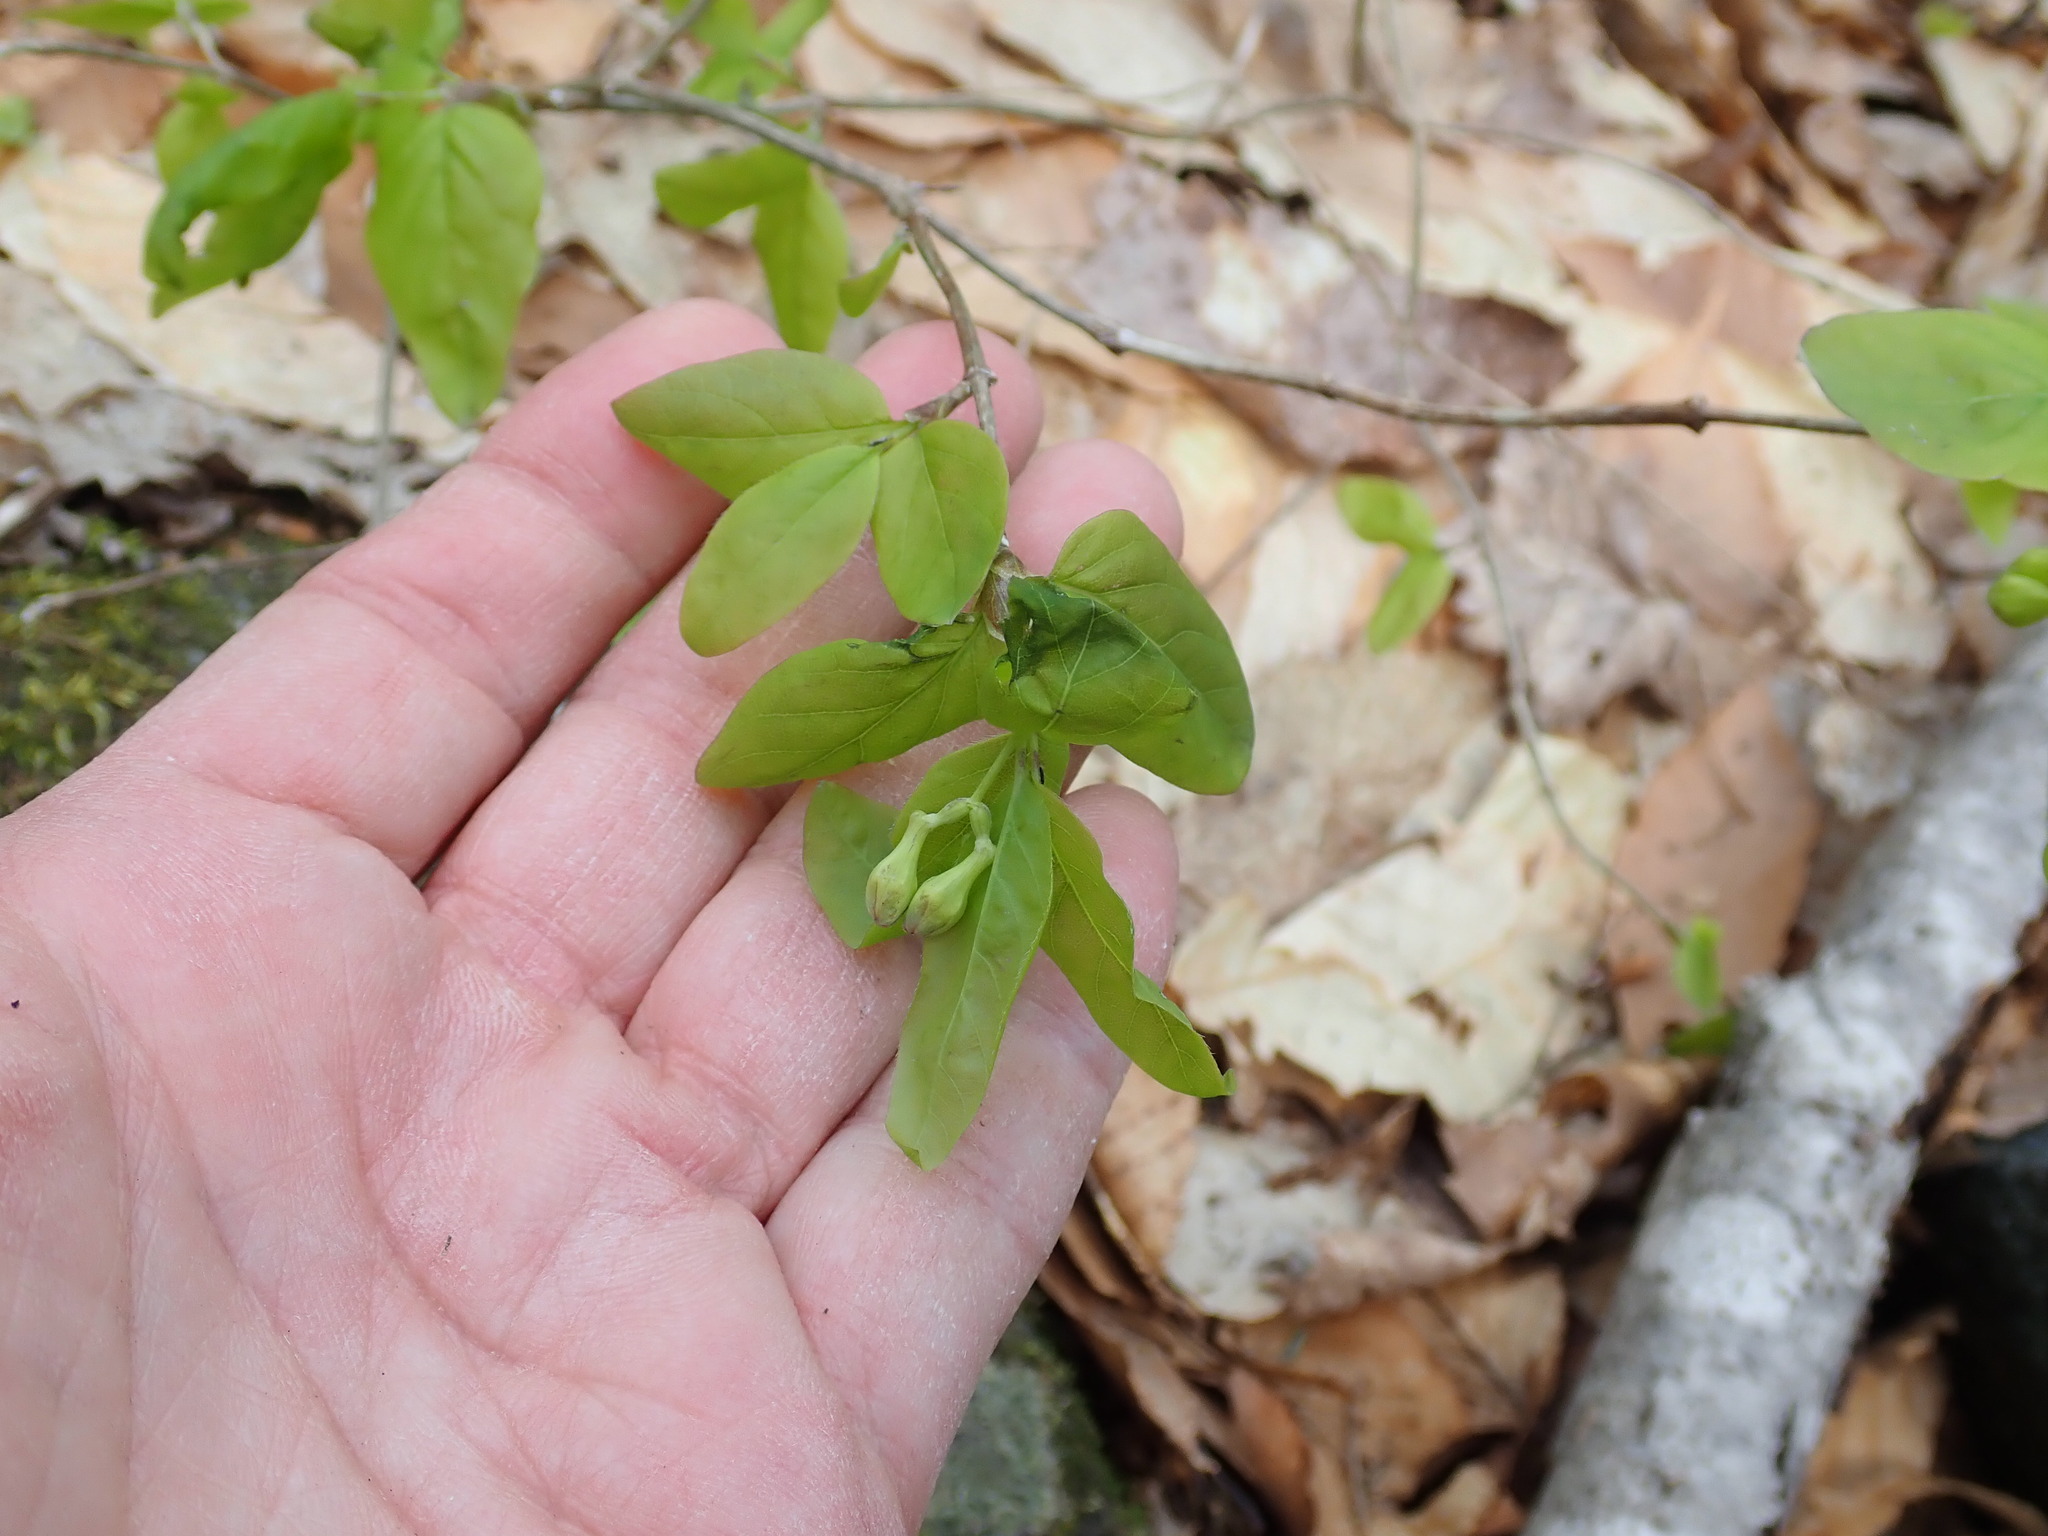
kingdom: Plantae
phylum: Tracheophyta
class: Magnoliopsida
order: Dipsacales
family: Caprifoliaceae
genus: Lonicera
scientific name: Lonicera canadensis
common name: American fly-honeysuckle
